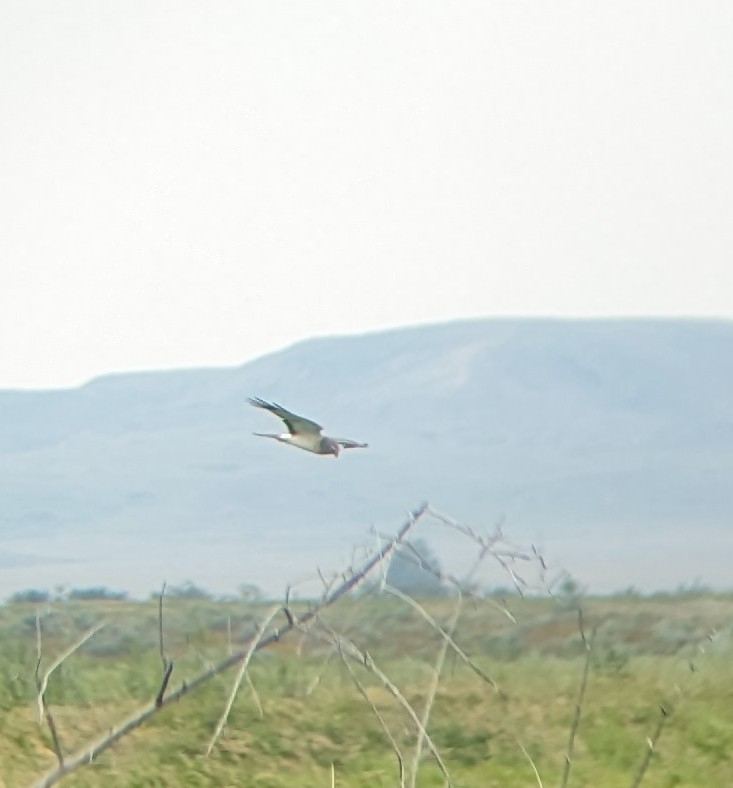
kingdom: Animalia
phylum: Chordata
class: Aves
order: Accipitriformes
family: Accipitridae
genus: Circus
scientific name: Circus cyaneus
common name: Hen harrier
